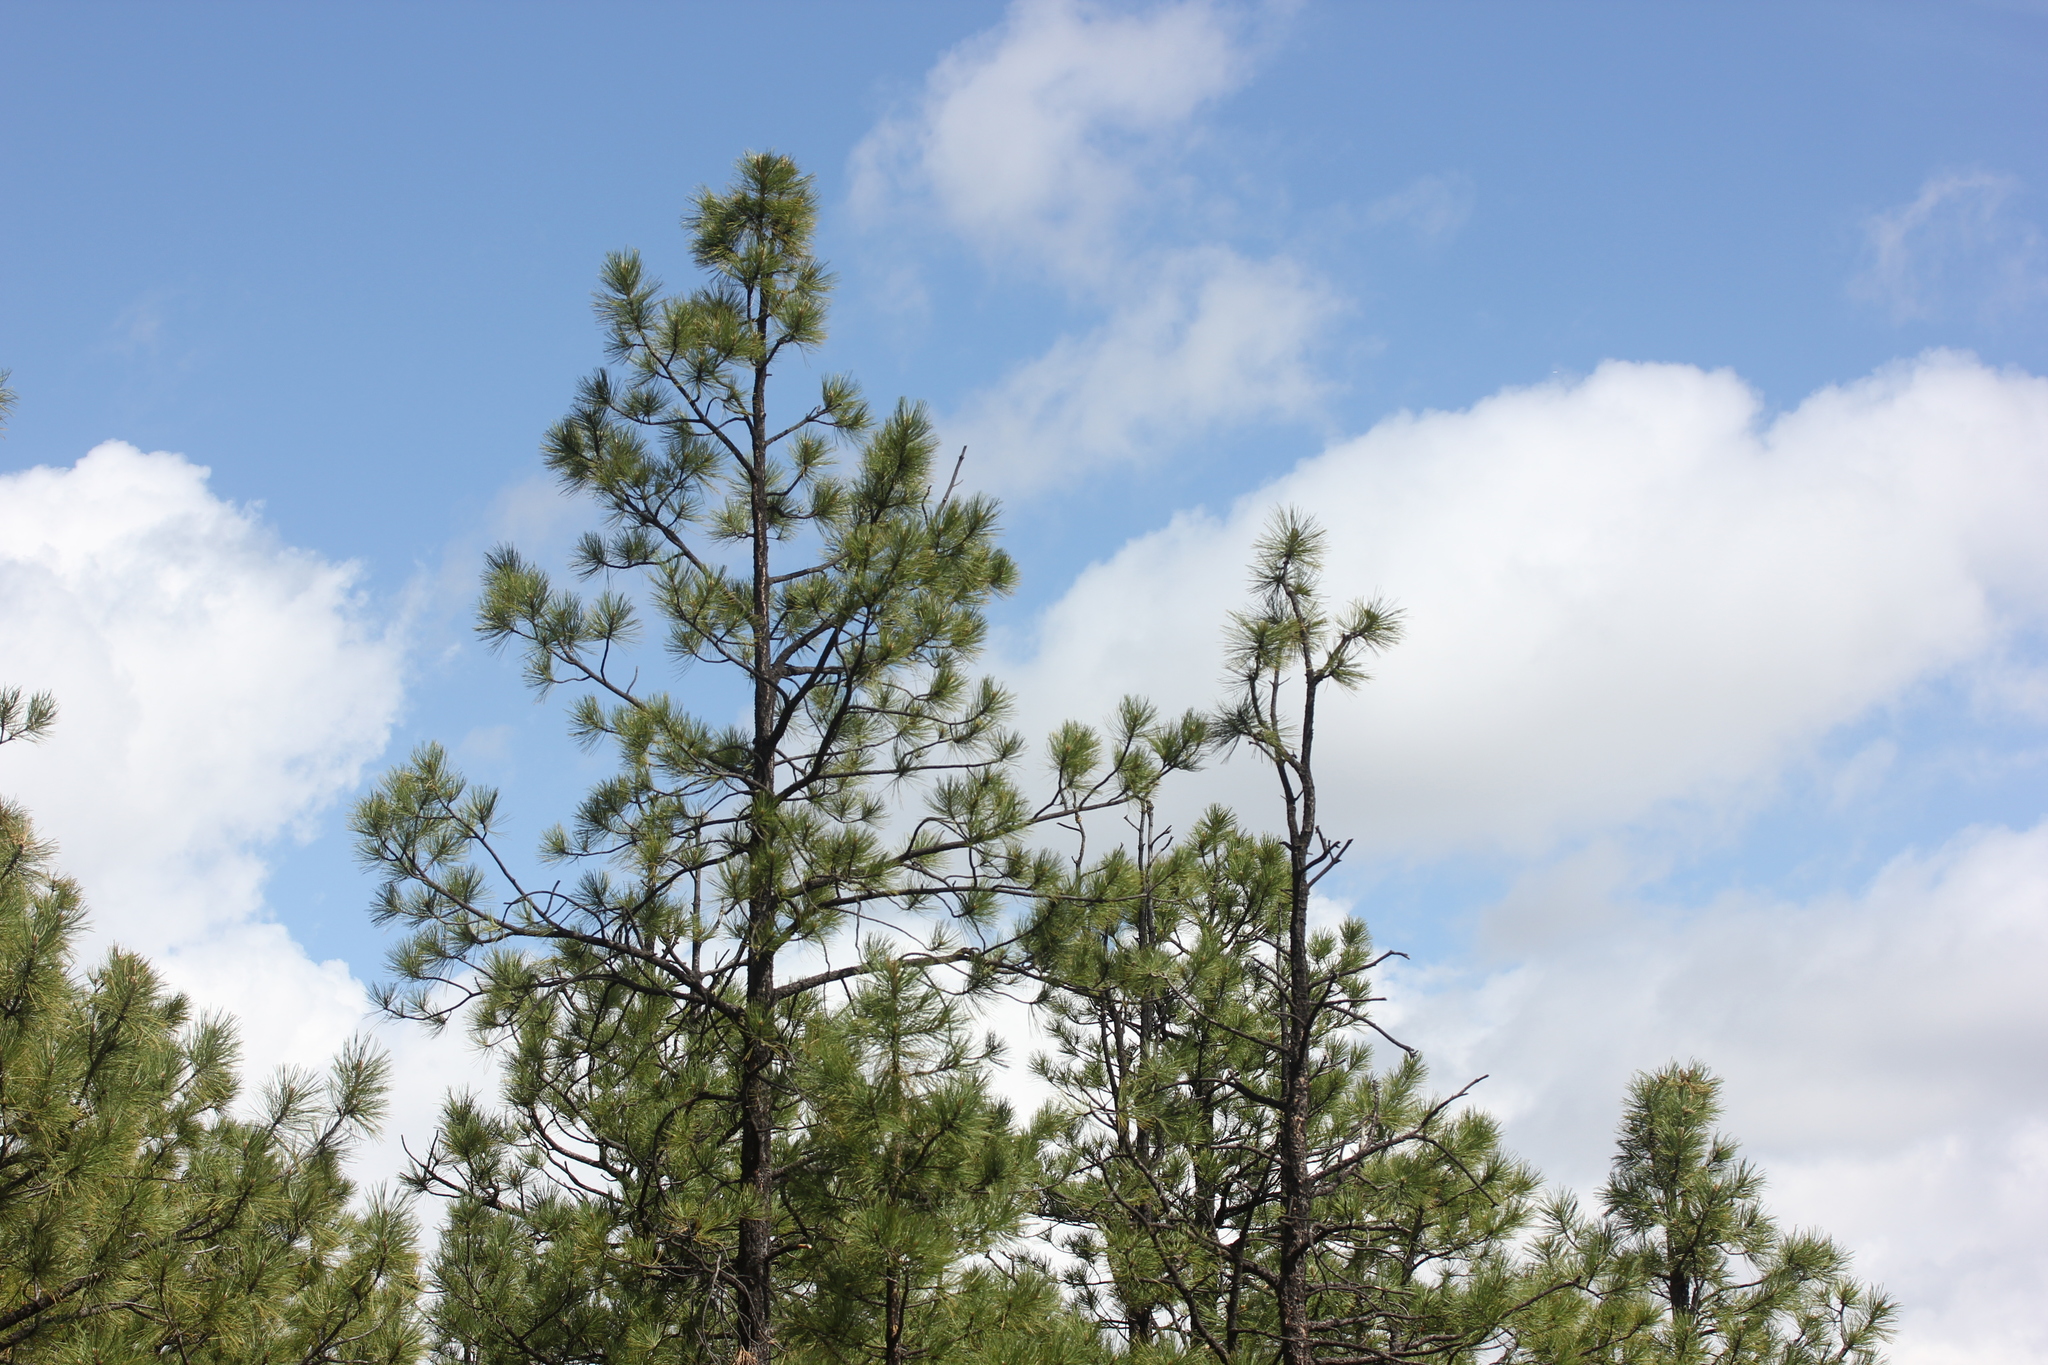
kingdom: Plantae
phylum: Tracheophyta
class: Pinopsida
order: Pinales
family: Pinaceae
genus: Pinus
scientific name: Pinus ponderosa
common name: Western yellow-pine
